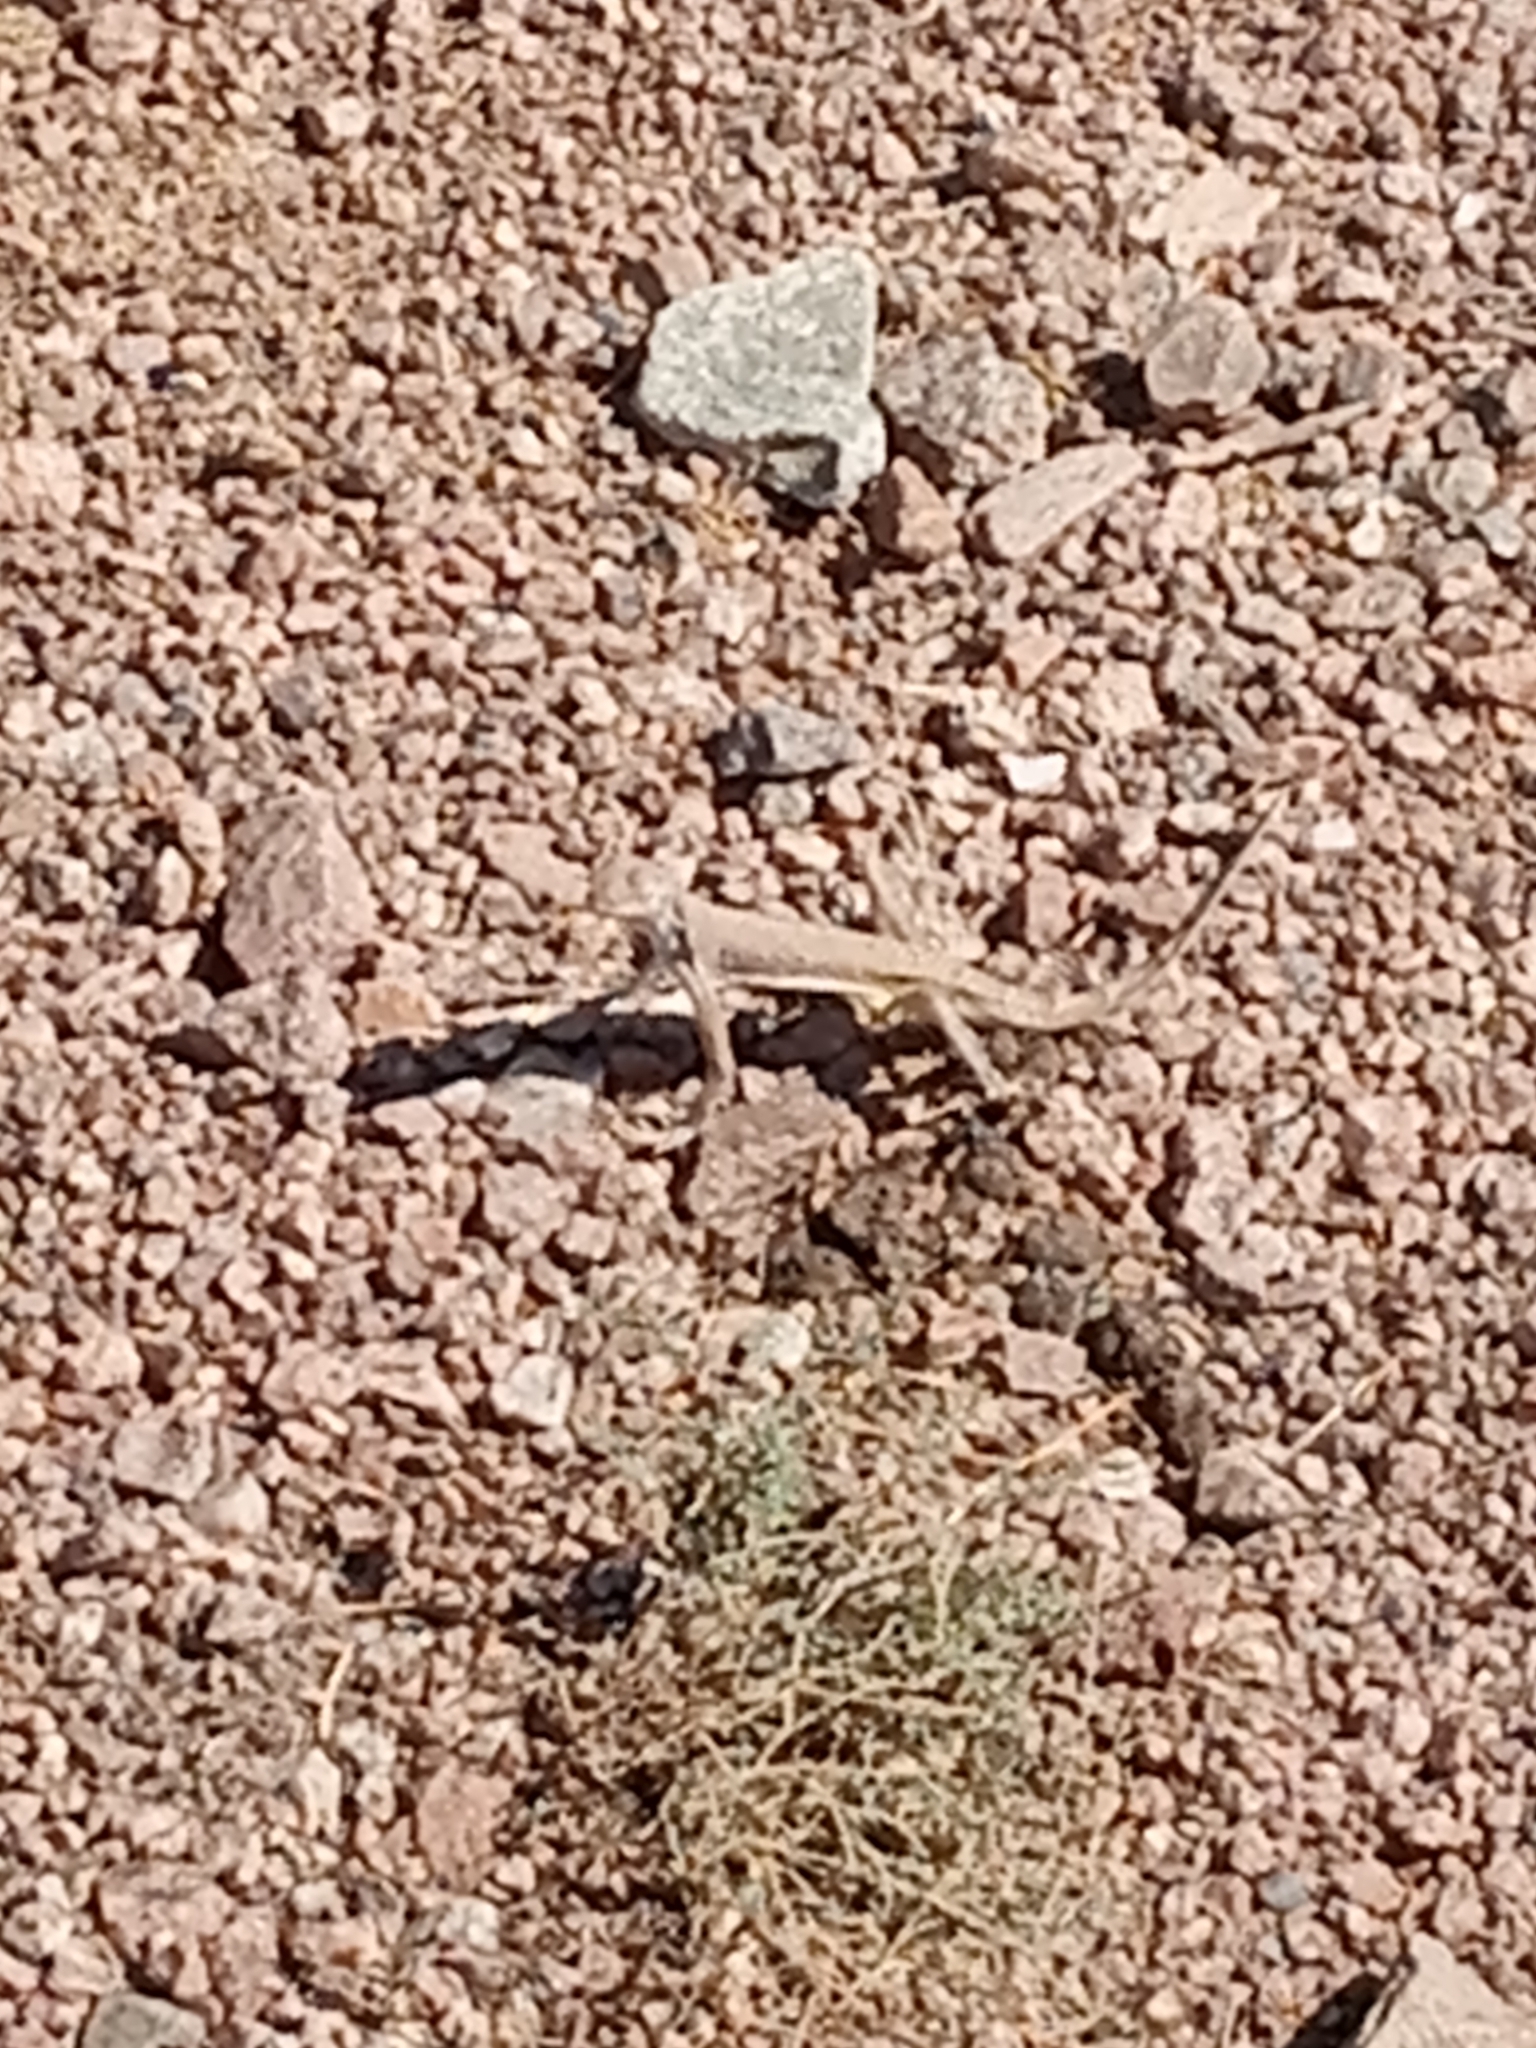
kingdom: Animalia
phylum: Chordata
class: Squamata
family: Phrynosomatidae
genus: Callisaurus
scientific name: Callisaurus draconoides
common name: Zebra-tailed lizard
